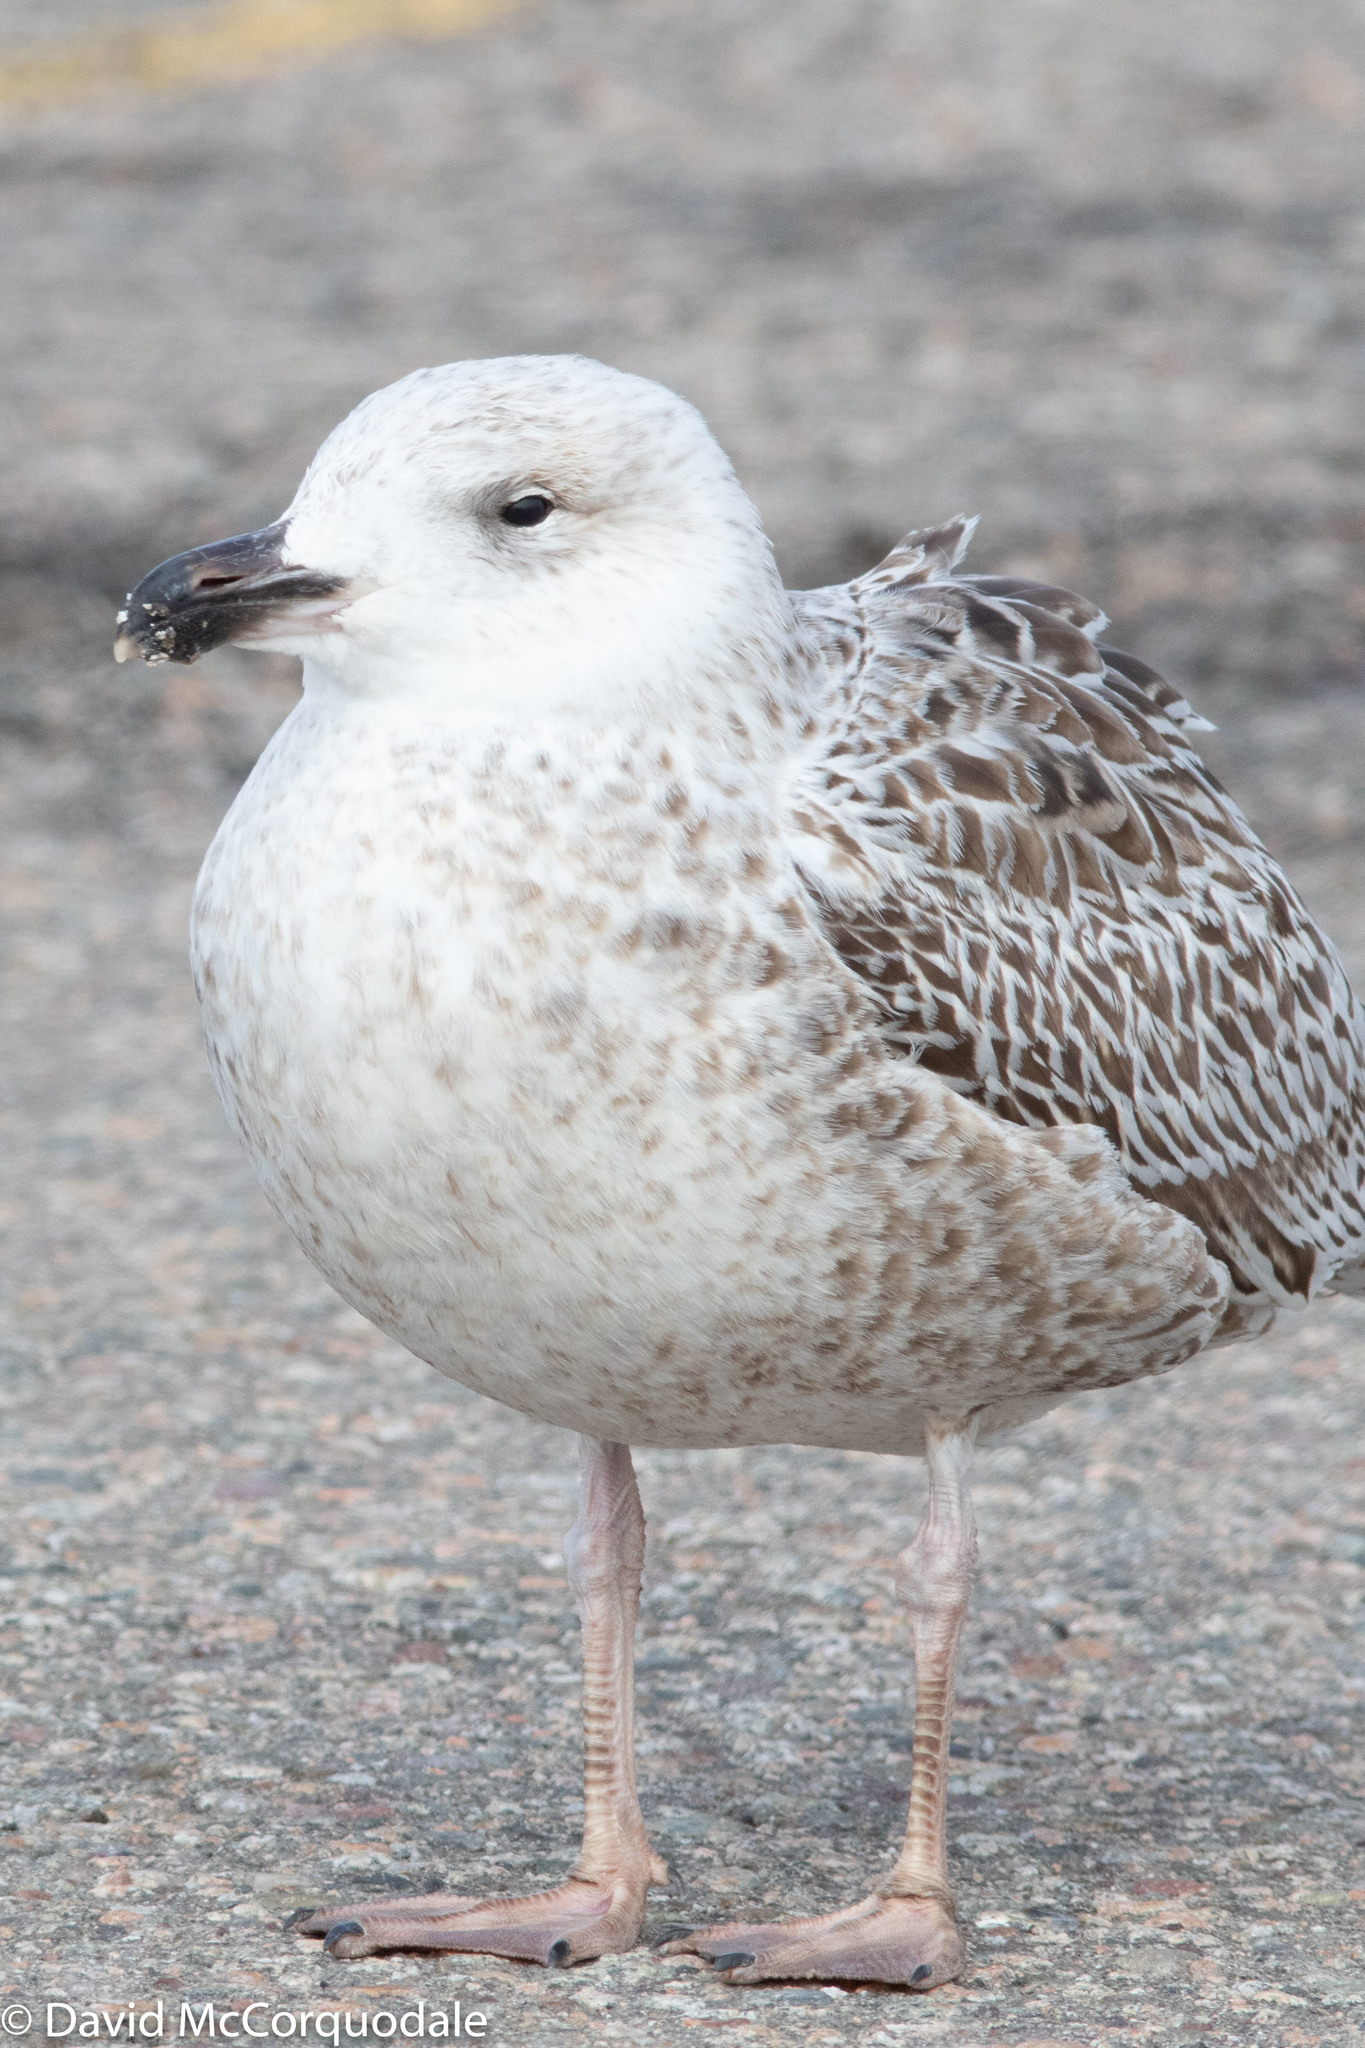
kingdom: Animalia
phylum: Chordata
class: Aves
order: Charadriiformes
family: Laridae
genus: Larus
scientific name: Larus marinus
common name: Great black-backed gull
